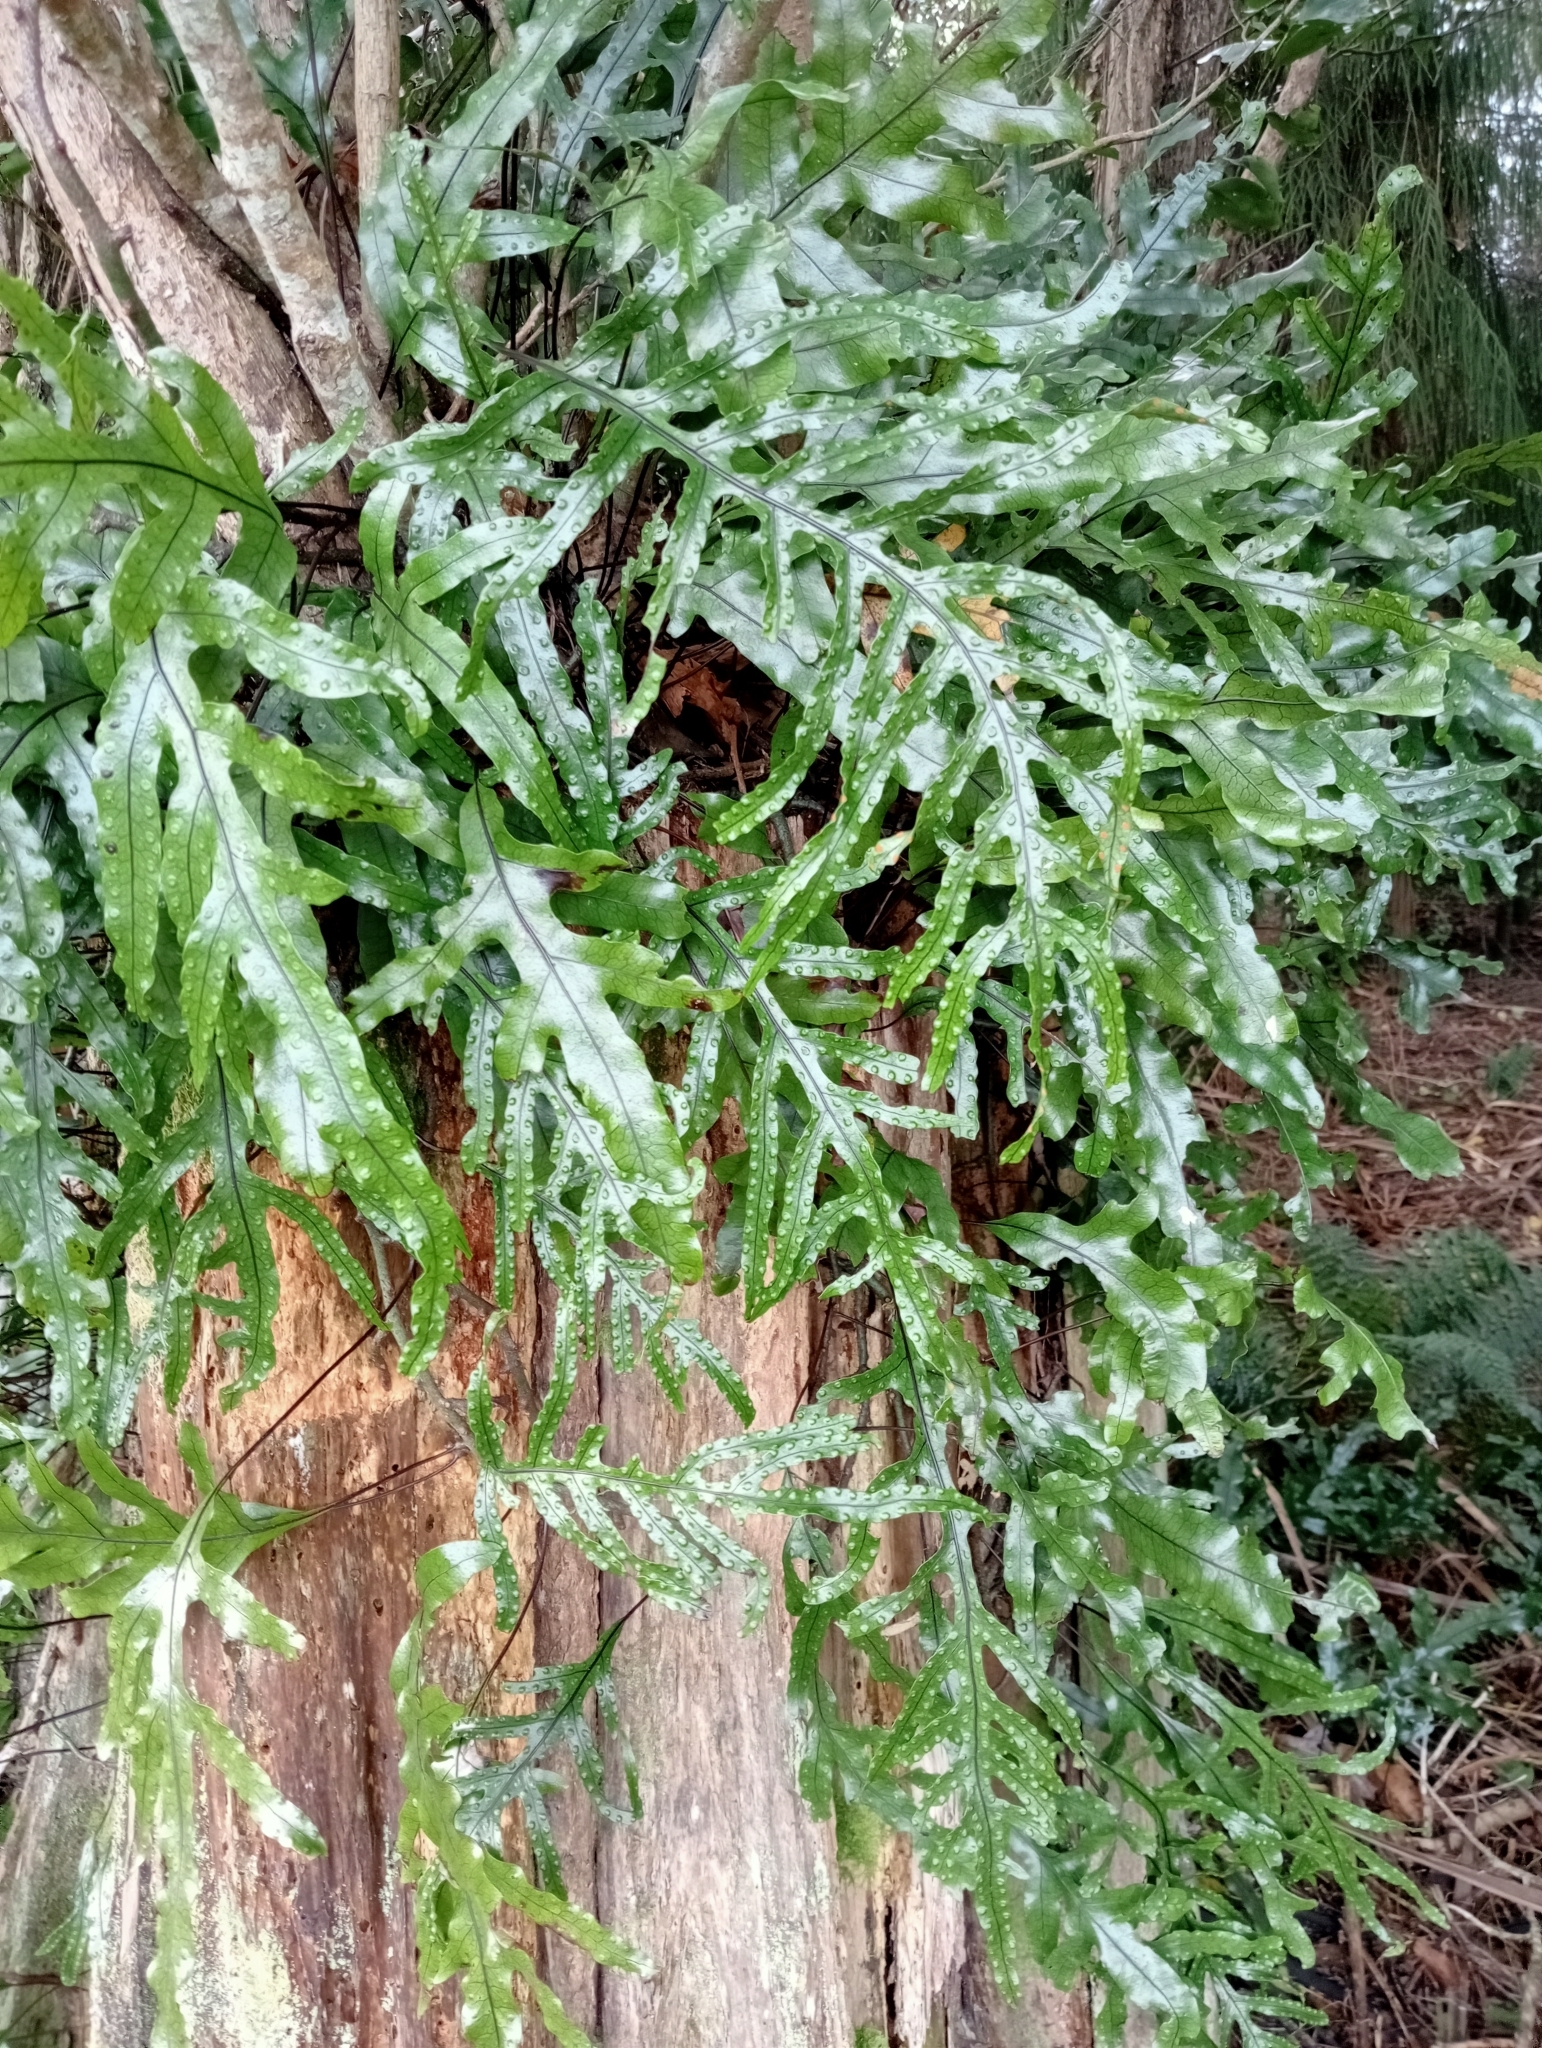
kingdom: Plantae
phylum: Tracheophyta
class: Polypodiopsida
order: Polypodiales
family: Polypodiaceae
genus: Lecanopteris
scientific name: Lecanopteris pustulata
